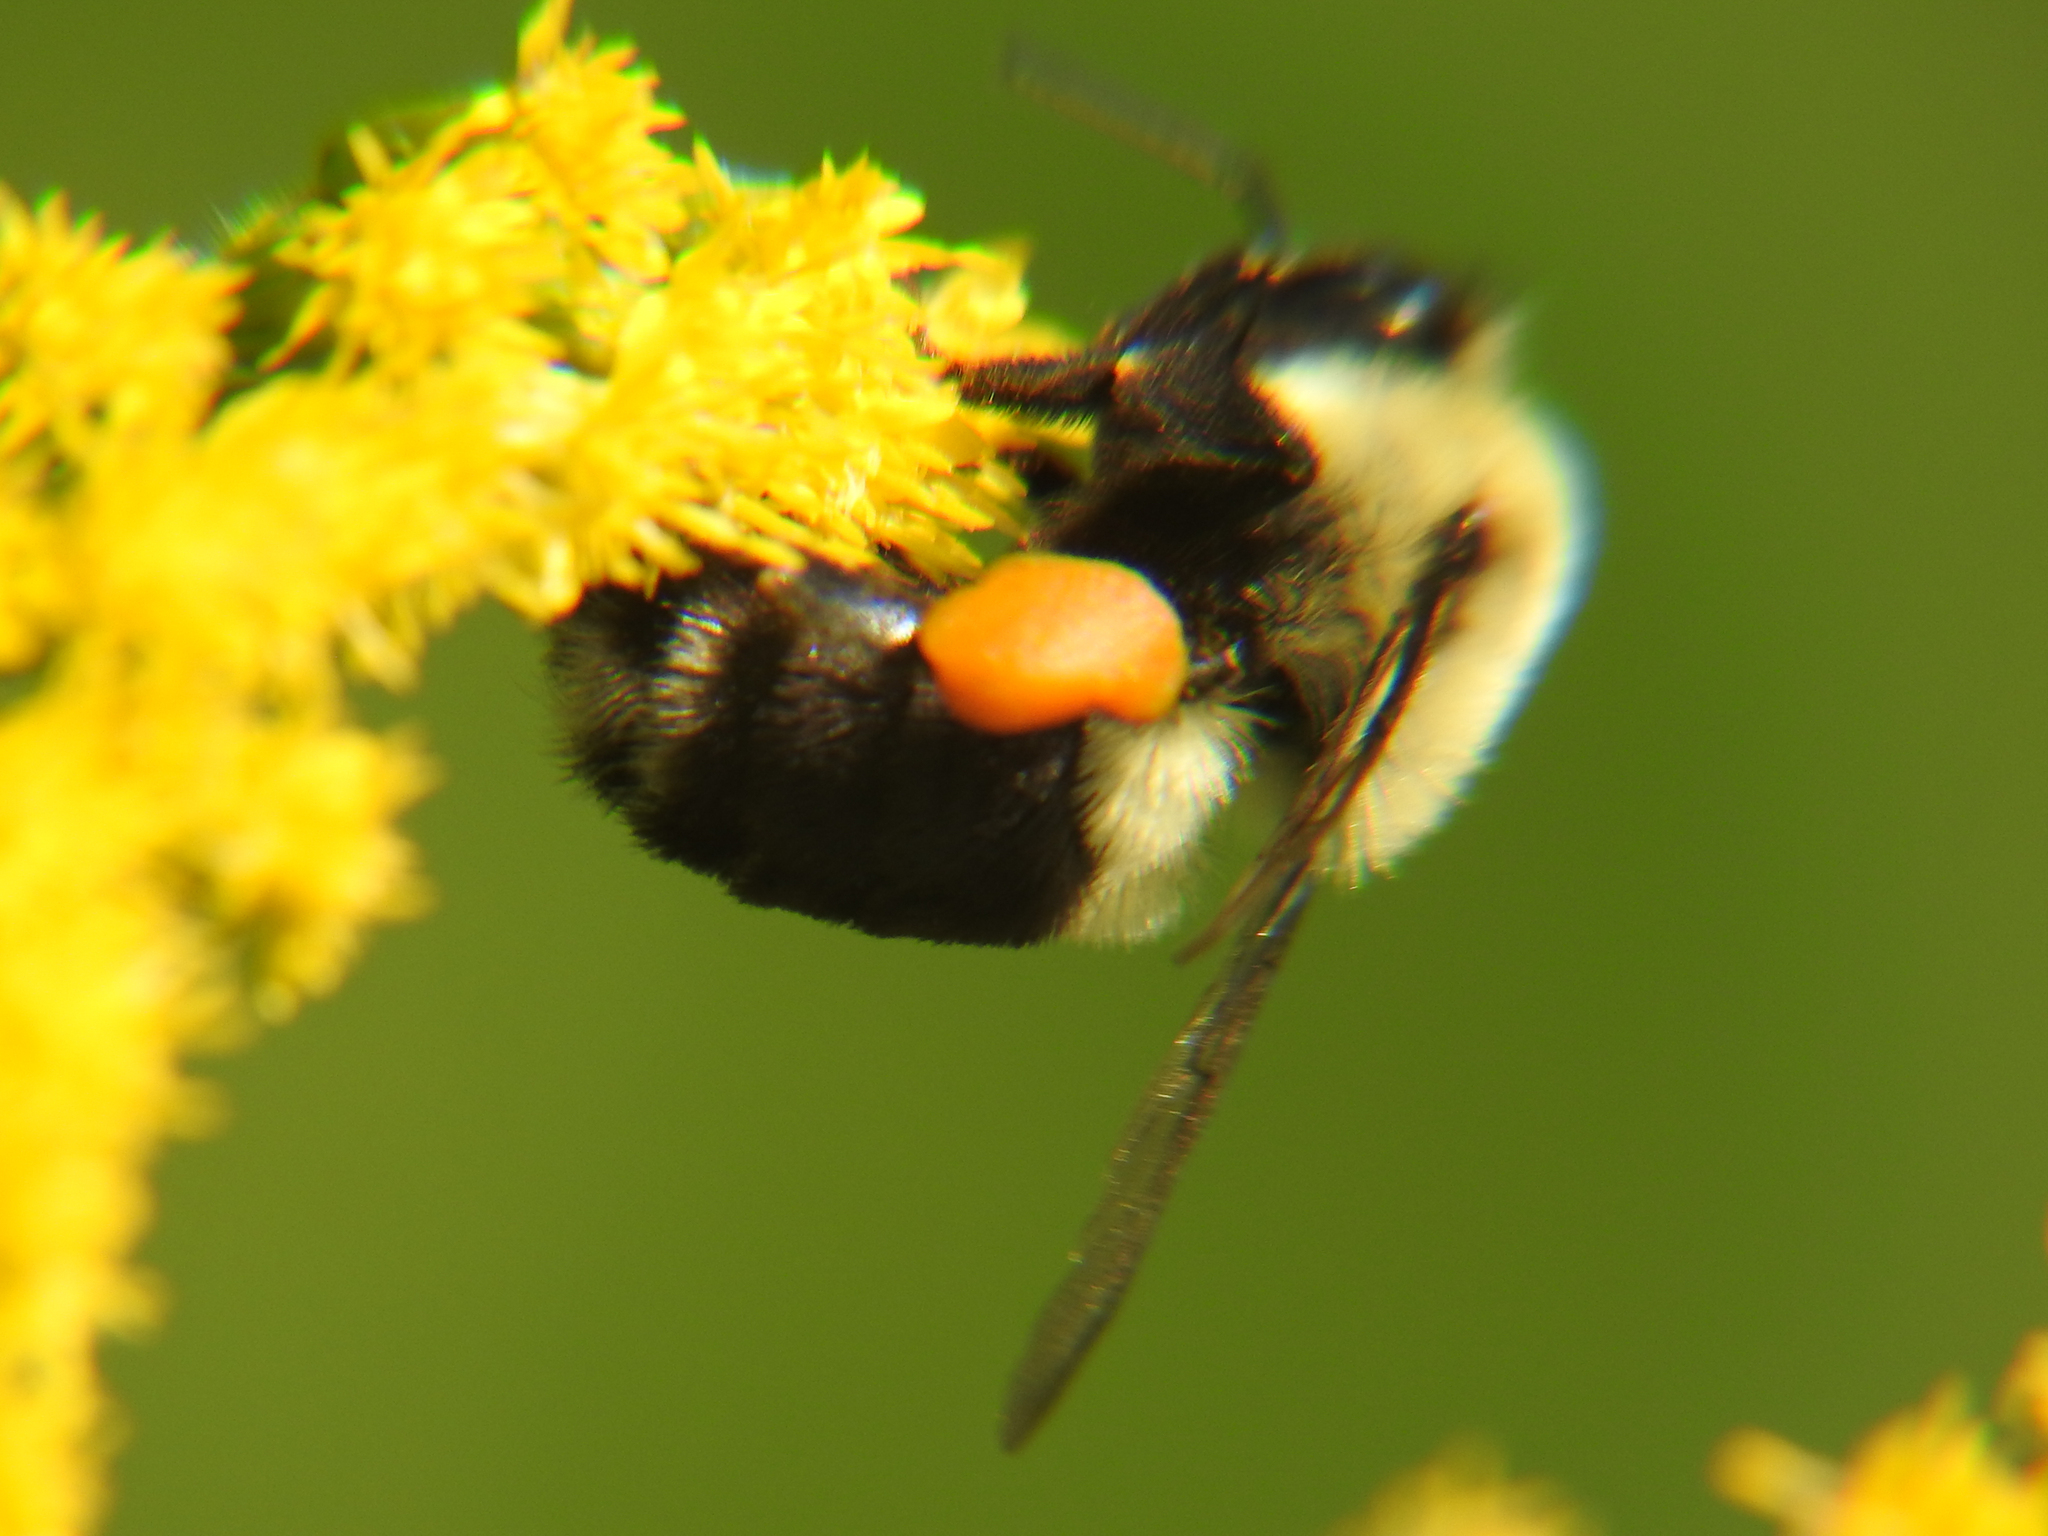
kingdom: Animalia
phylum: Arthropoda
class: Insecta
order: Hymenoptera
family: Apidae
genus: Bombus
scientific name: Bombus impatiens
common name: Common eastern bumble bee
